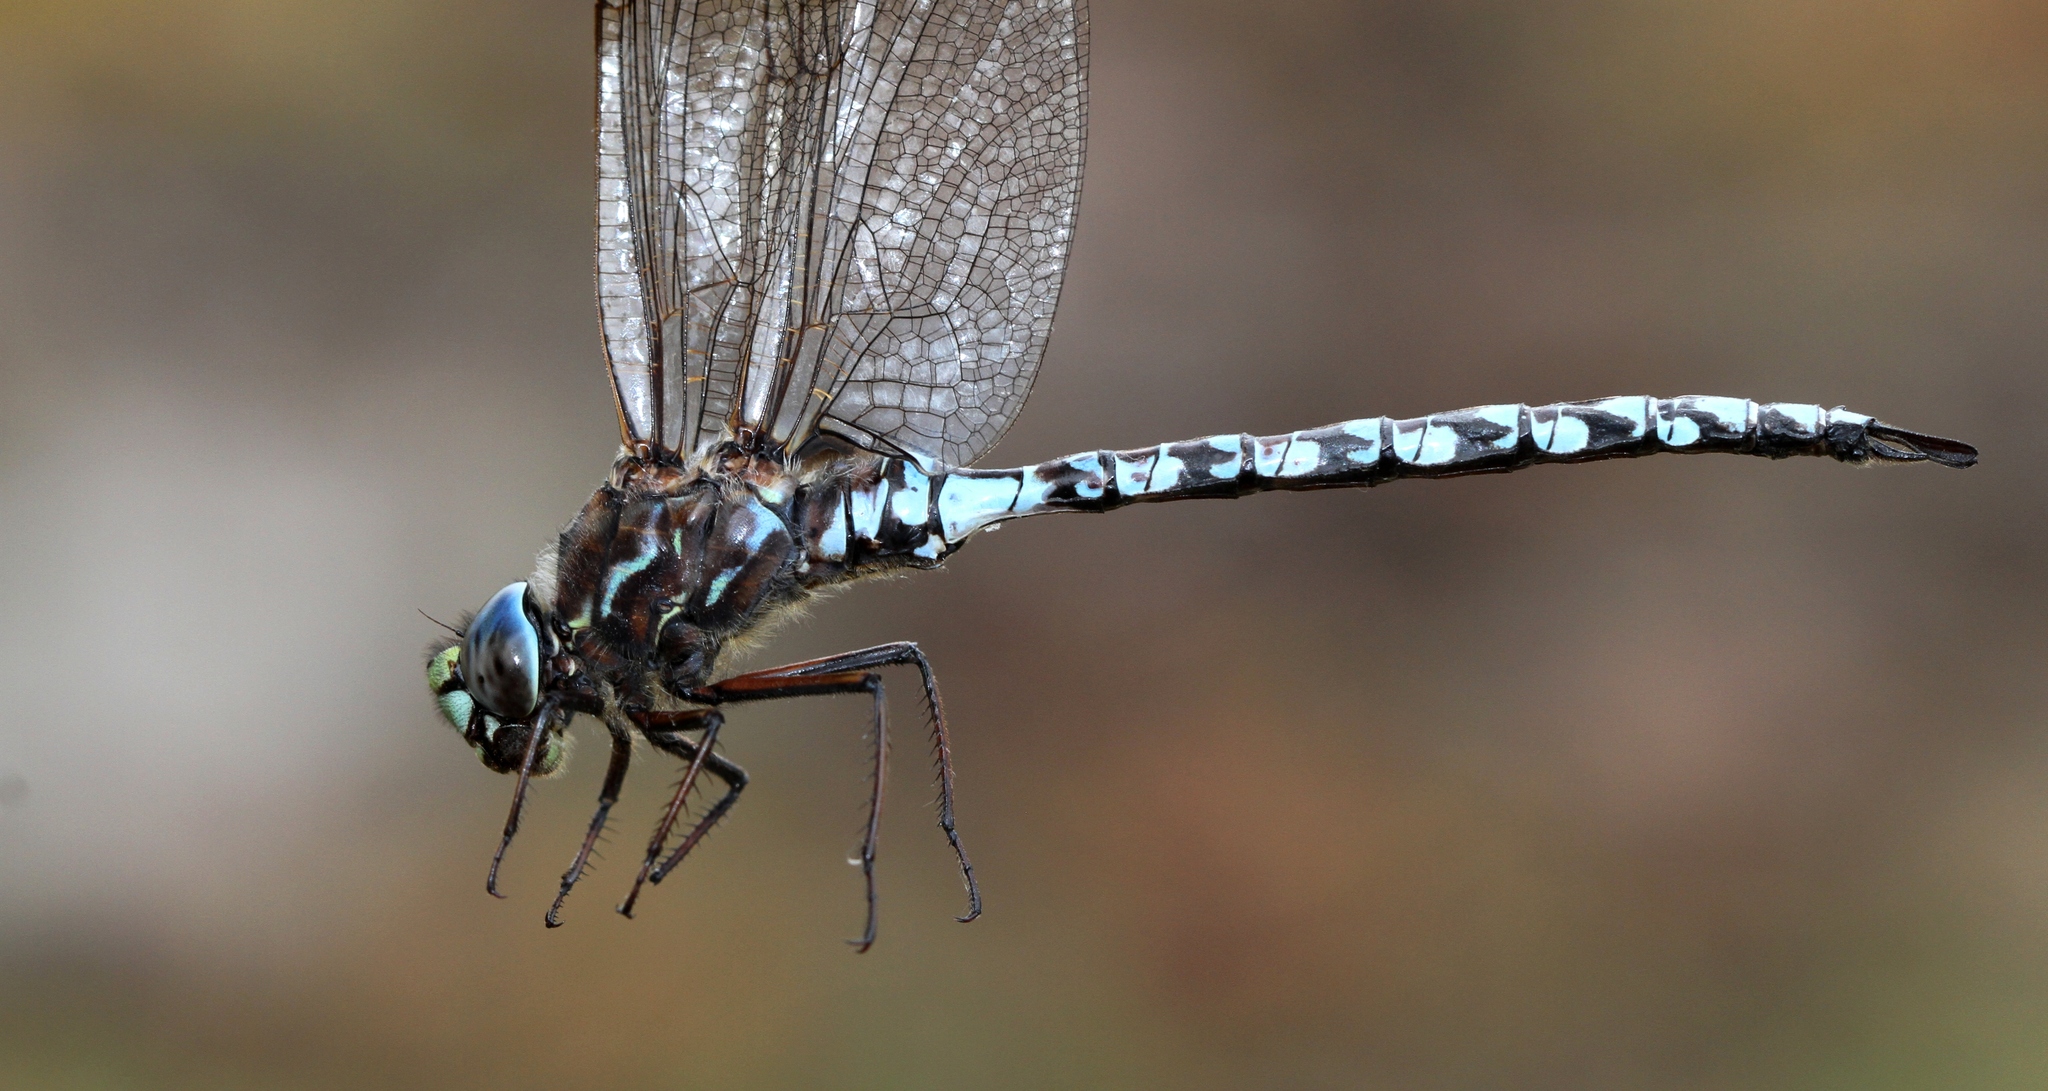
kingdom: Animalia
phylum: Arthropoda
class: Insecta
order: Odonata
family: Aeshnidae
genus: Aeshna
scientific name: Aeshna sitchensis
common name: Zigzag darner
